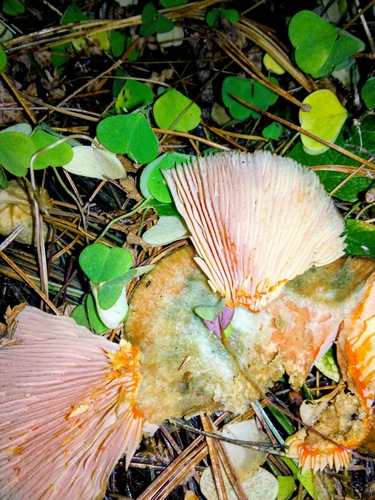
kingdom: Fungi
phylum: Basidiomycota
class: Agaricomycetes
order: Russulales
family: Russulaceae
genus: Lactarius
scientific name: Lactarius deterrimus
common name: False saffron milkcap
